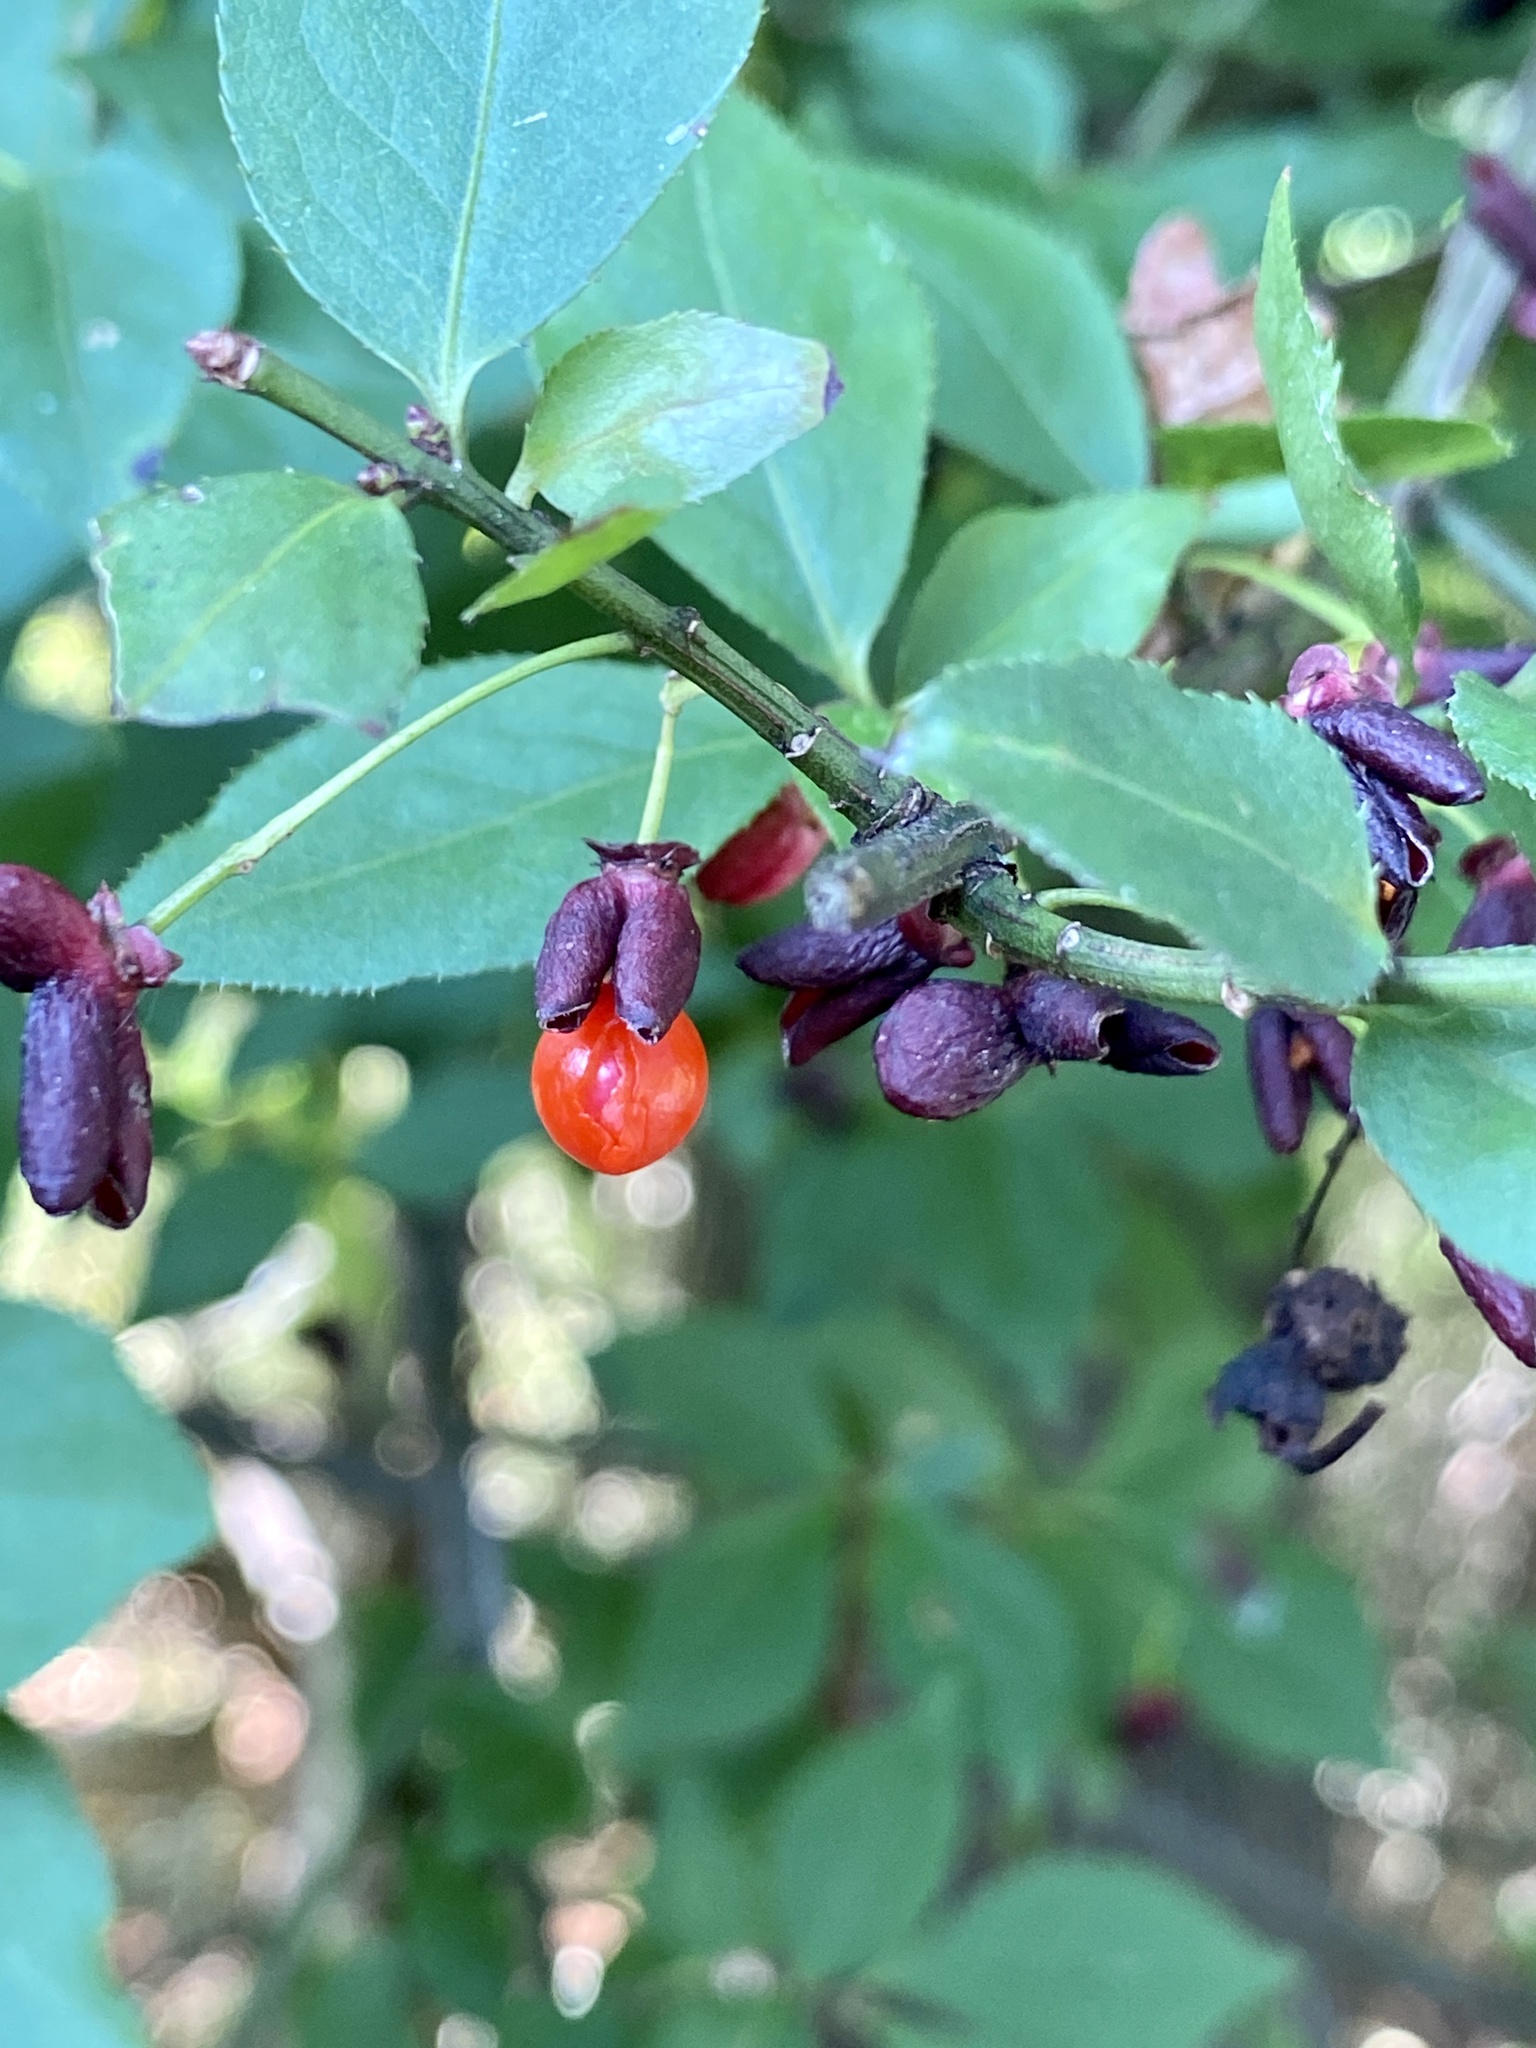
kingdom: Plantae
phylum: Tracheophyta
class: Magnoliopsida
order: Celastrales
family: Celastraceae
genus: Euonymus
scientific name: Euonymus alatus
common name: Winged euonymus
